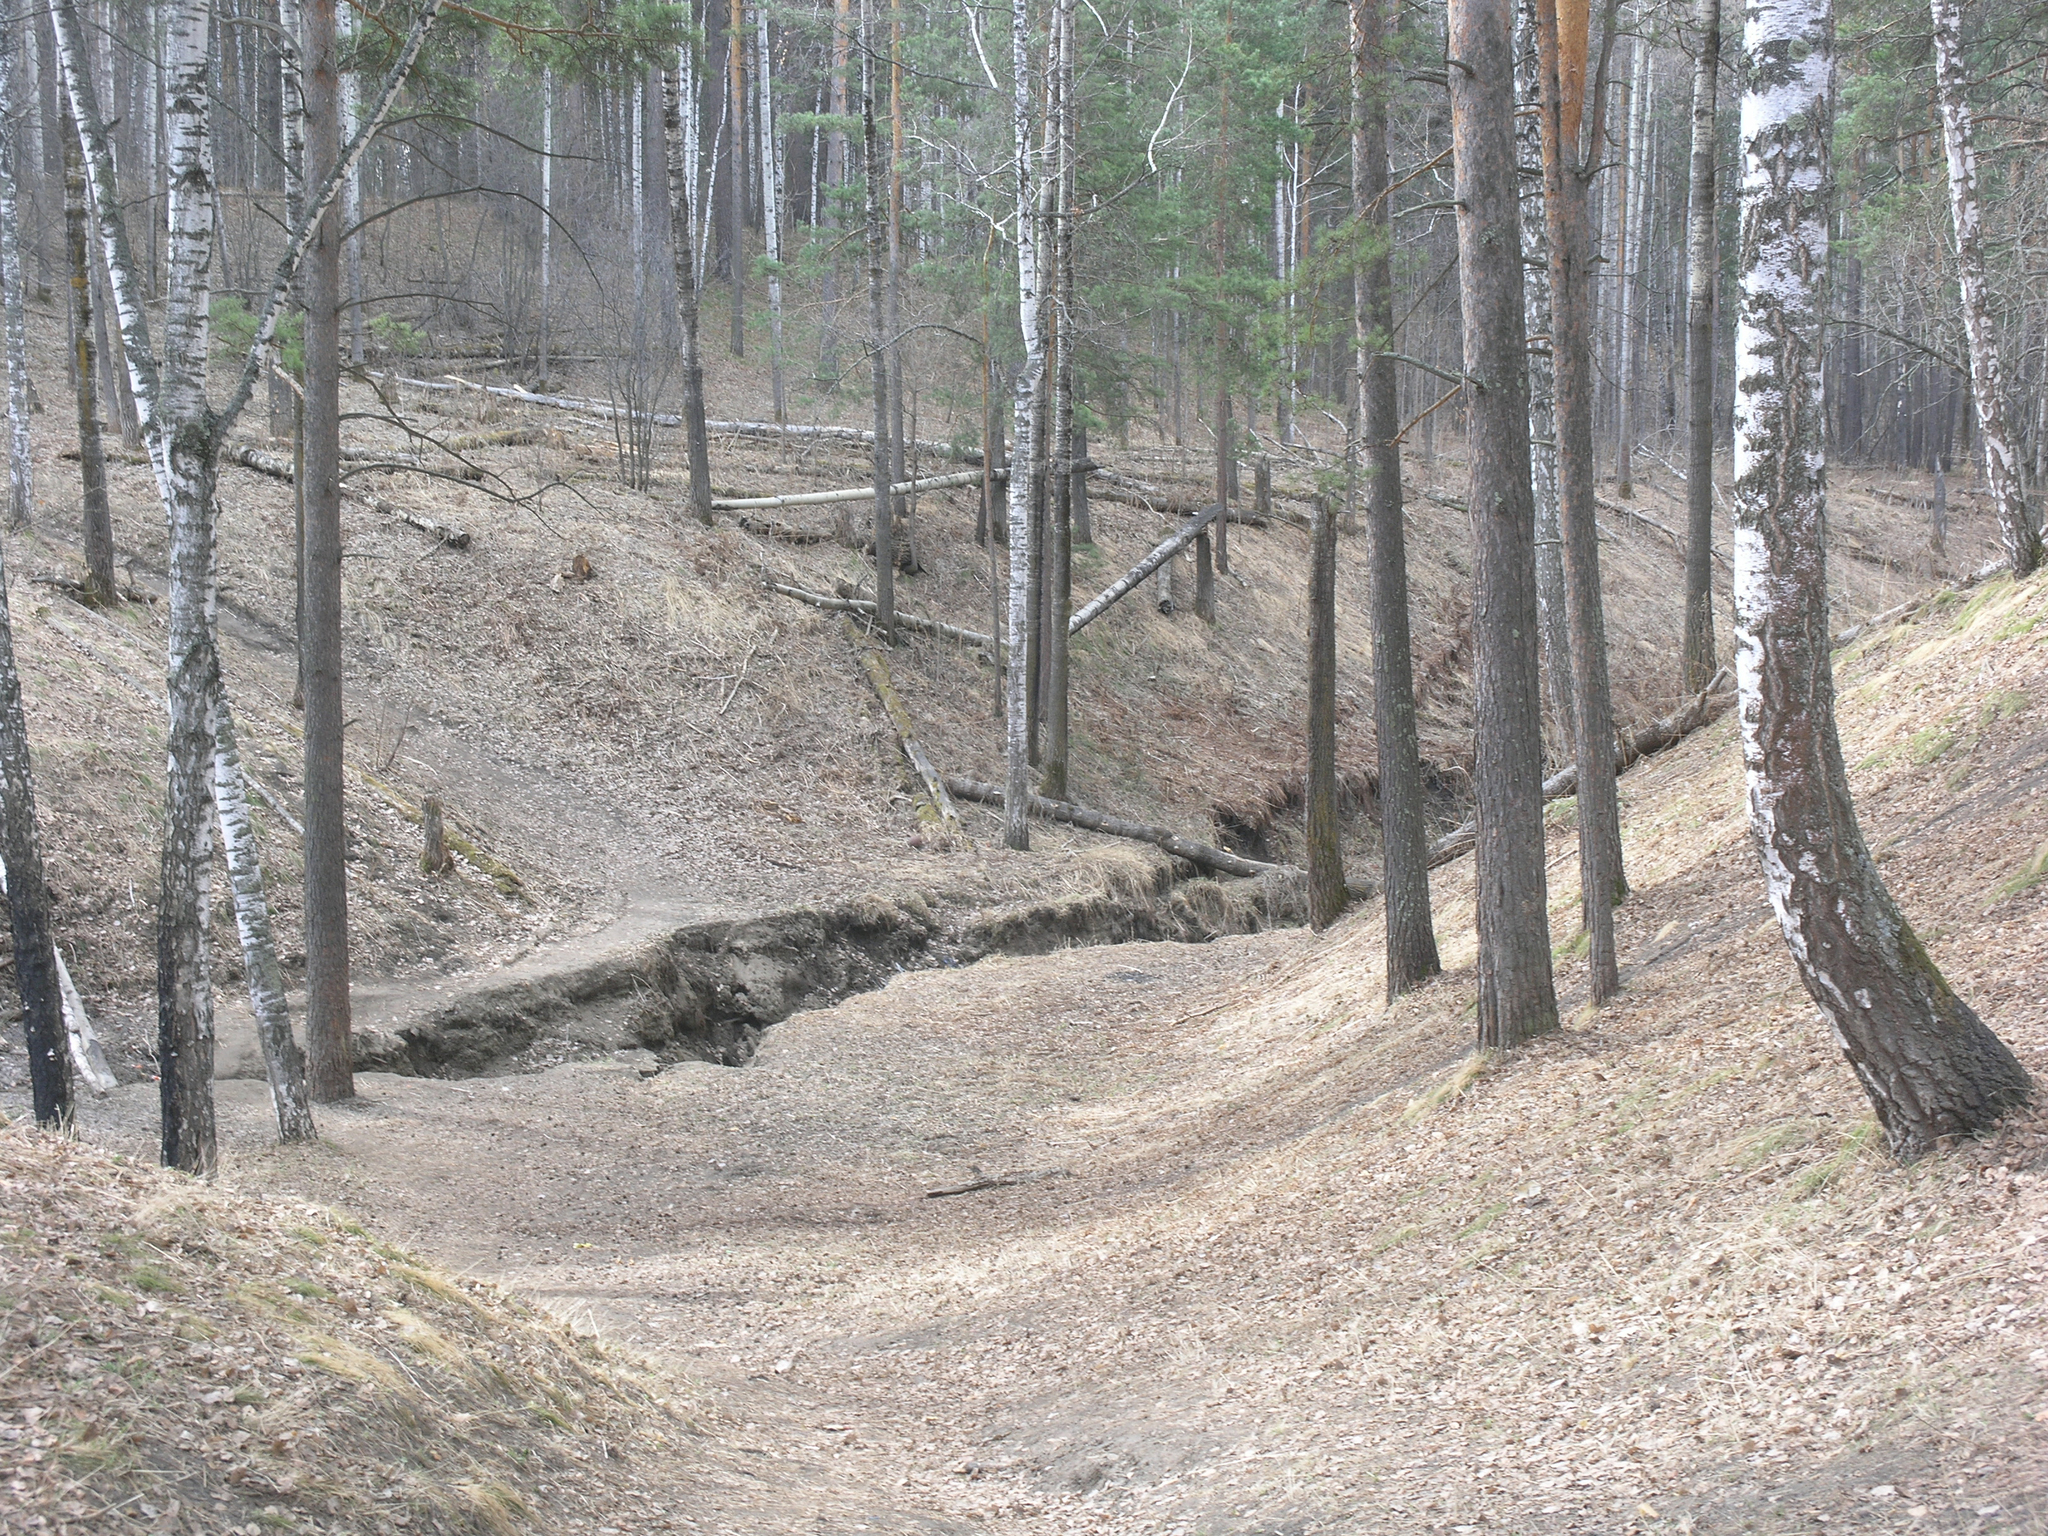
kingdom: Plantae
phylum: Tracheophyta
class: Magnoliopsida
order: Fagales
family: Betulaceae
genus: Betula
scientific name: Betula pendula
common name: Silver birch
